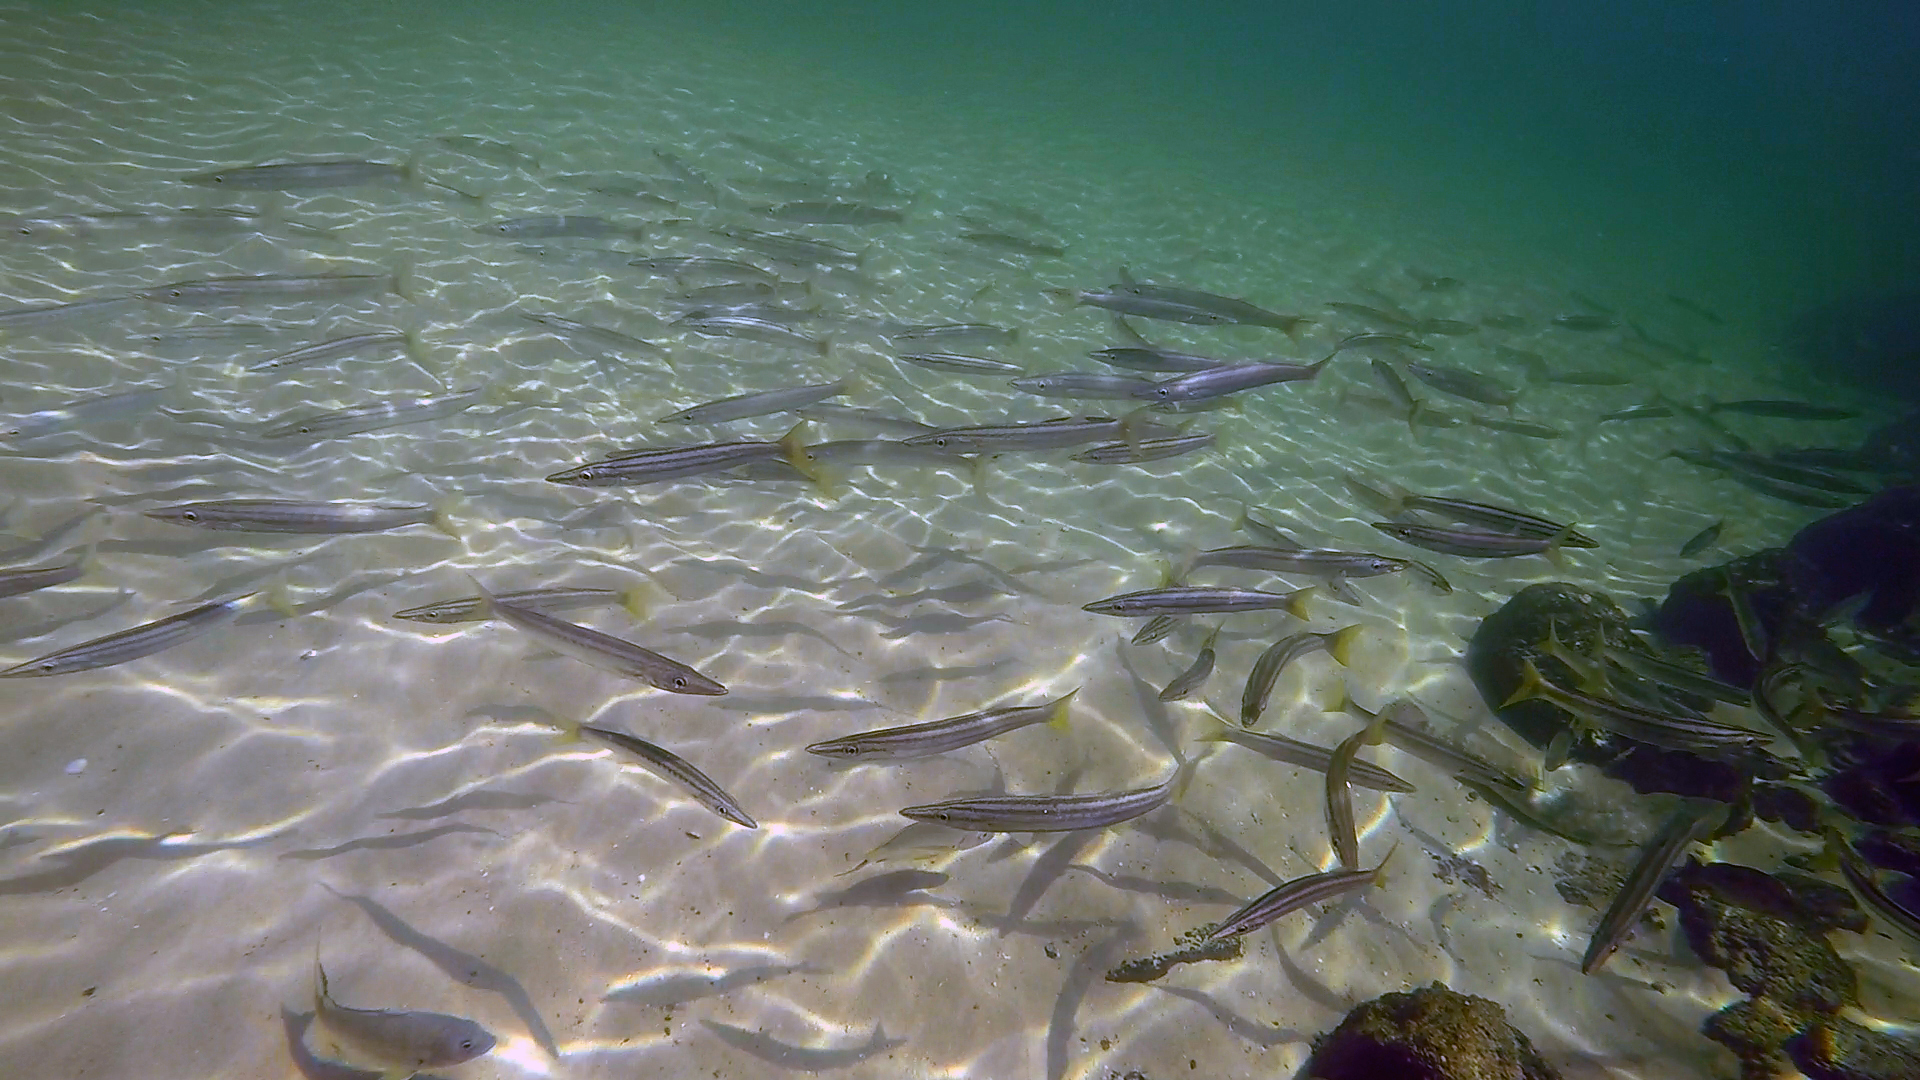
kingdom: Animalia
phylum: Chordata
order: Perciformes
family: Sphyraenidae
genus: Sphyraena
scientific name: Sphyraena obtusata
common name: Obtuse barracuda
